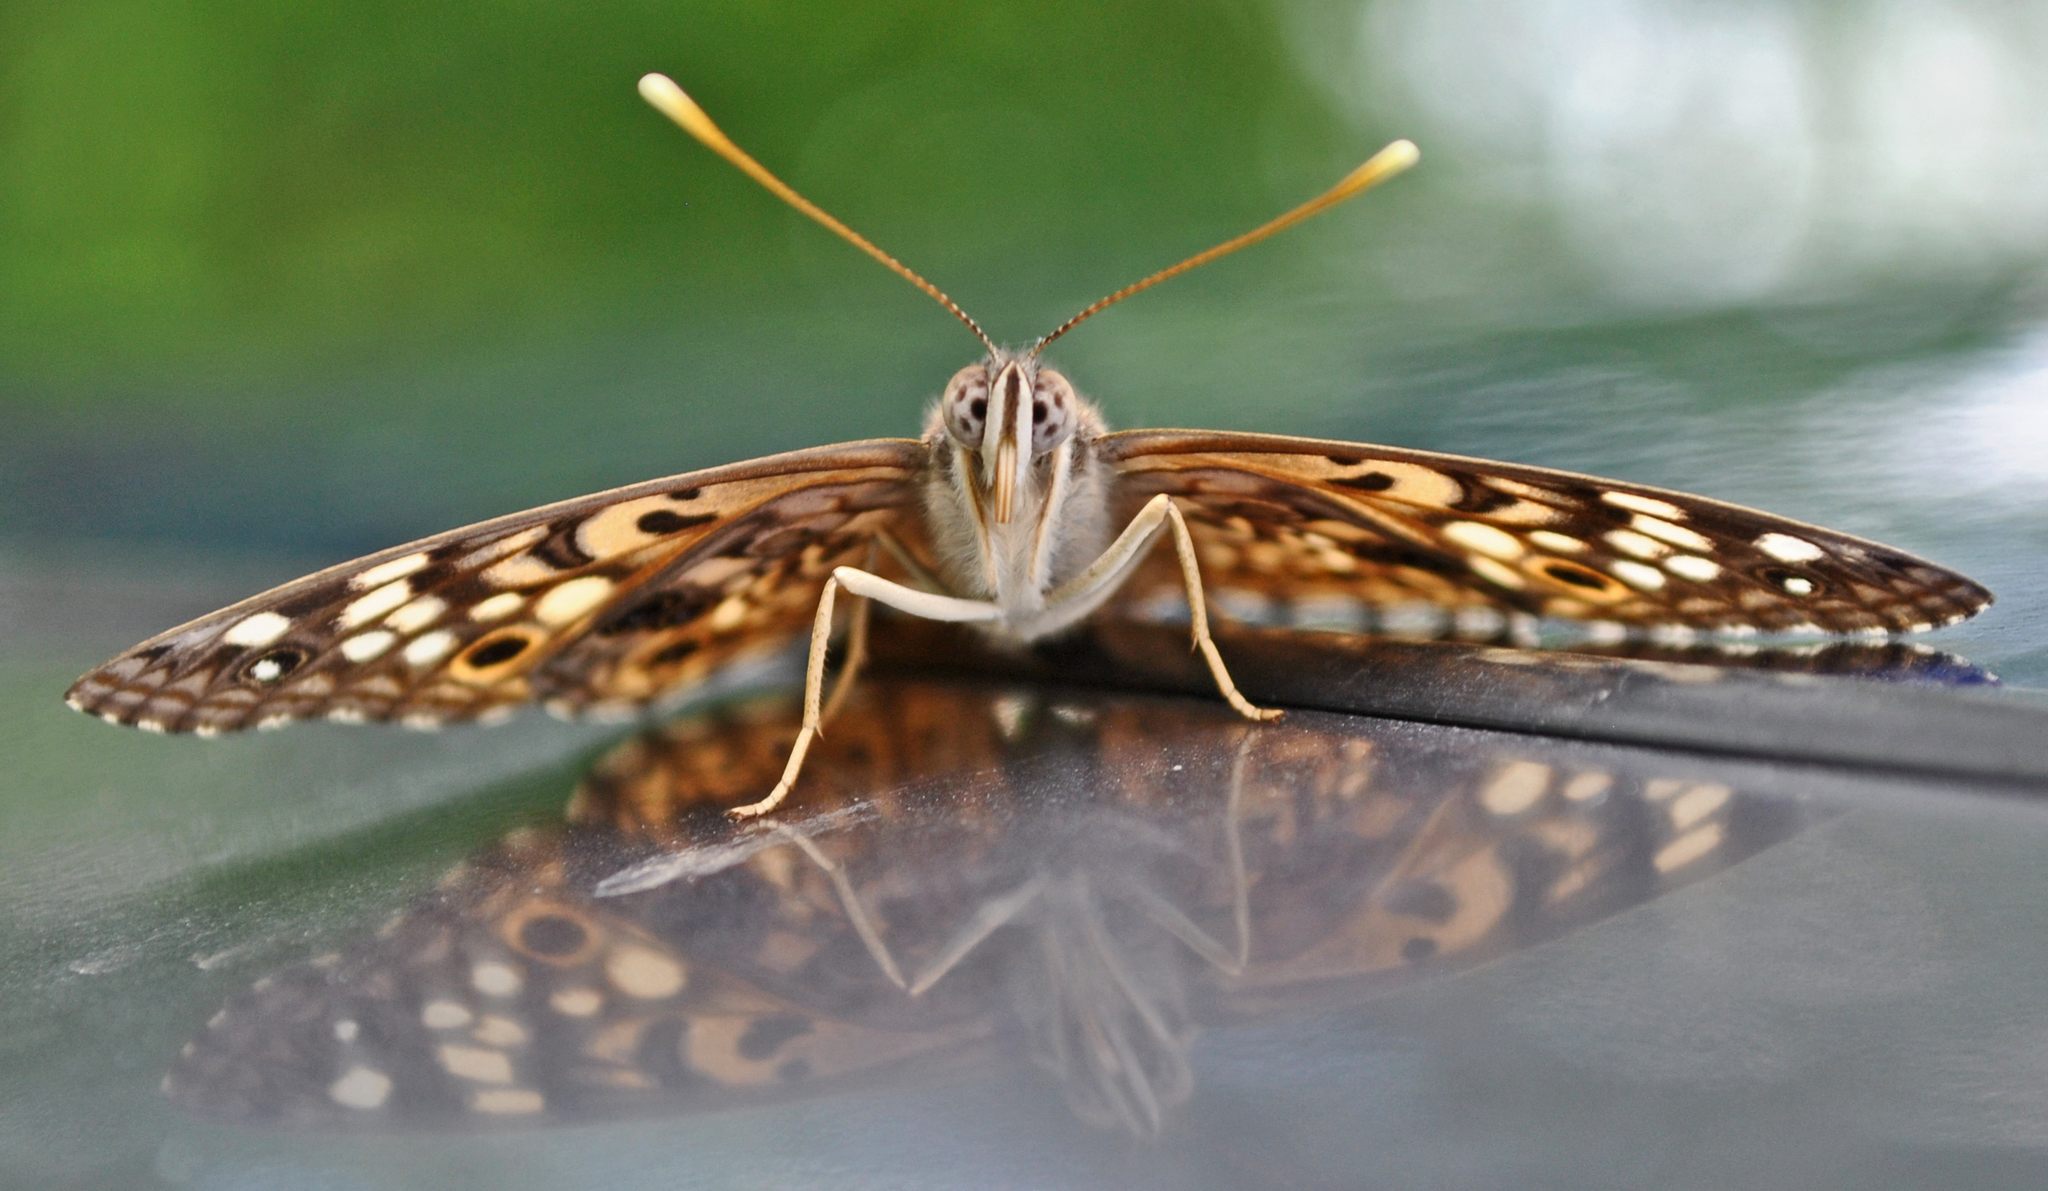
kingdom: Animalia
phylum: Arthropoda
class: Insecta
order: Lepidoptera
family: Nymphalidae
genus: Asterocampa
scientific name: Asterocampa celtis
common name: Hackberry emperor
